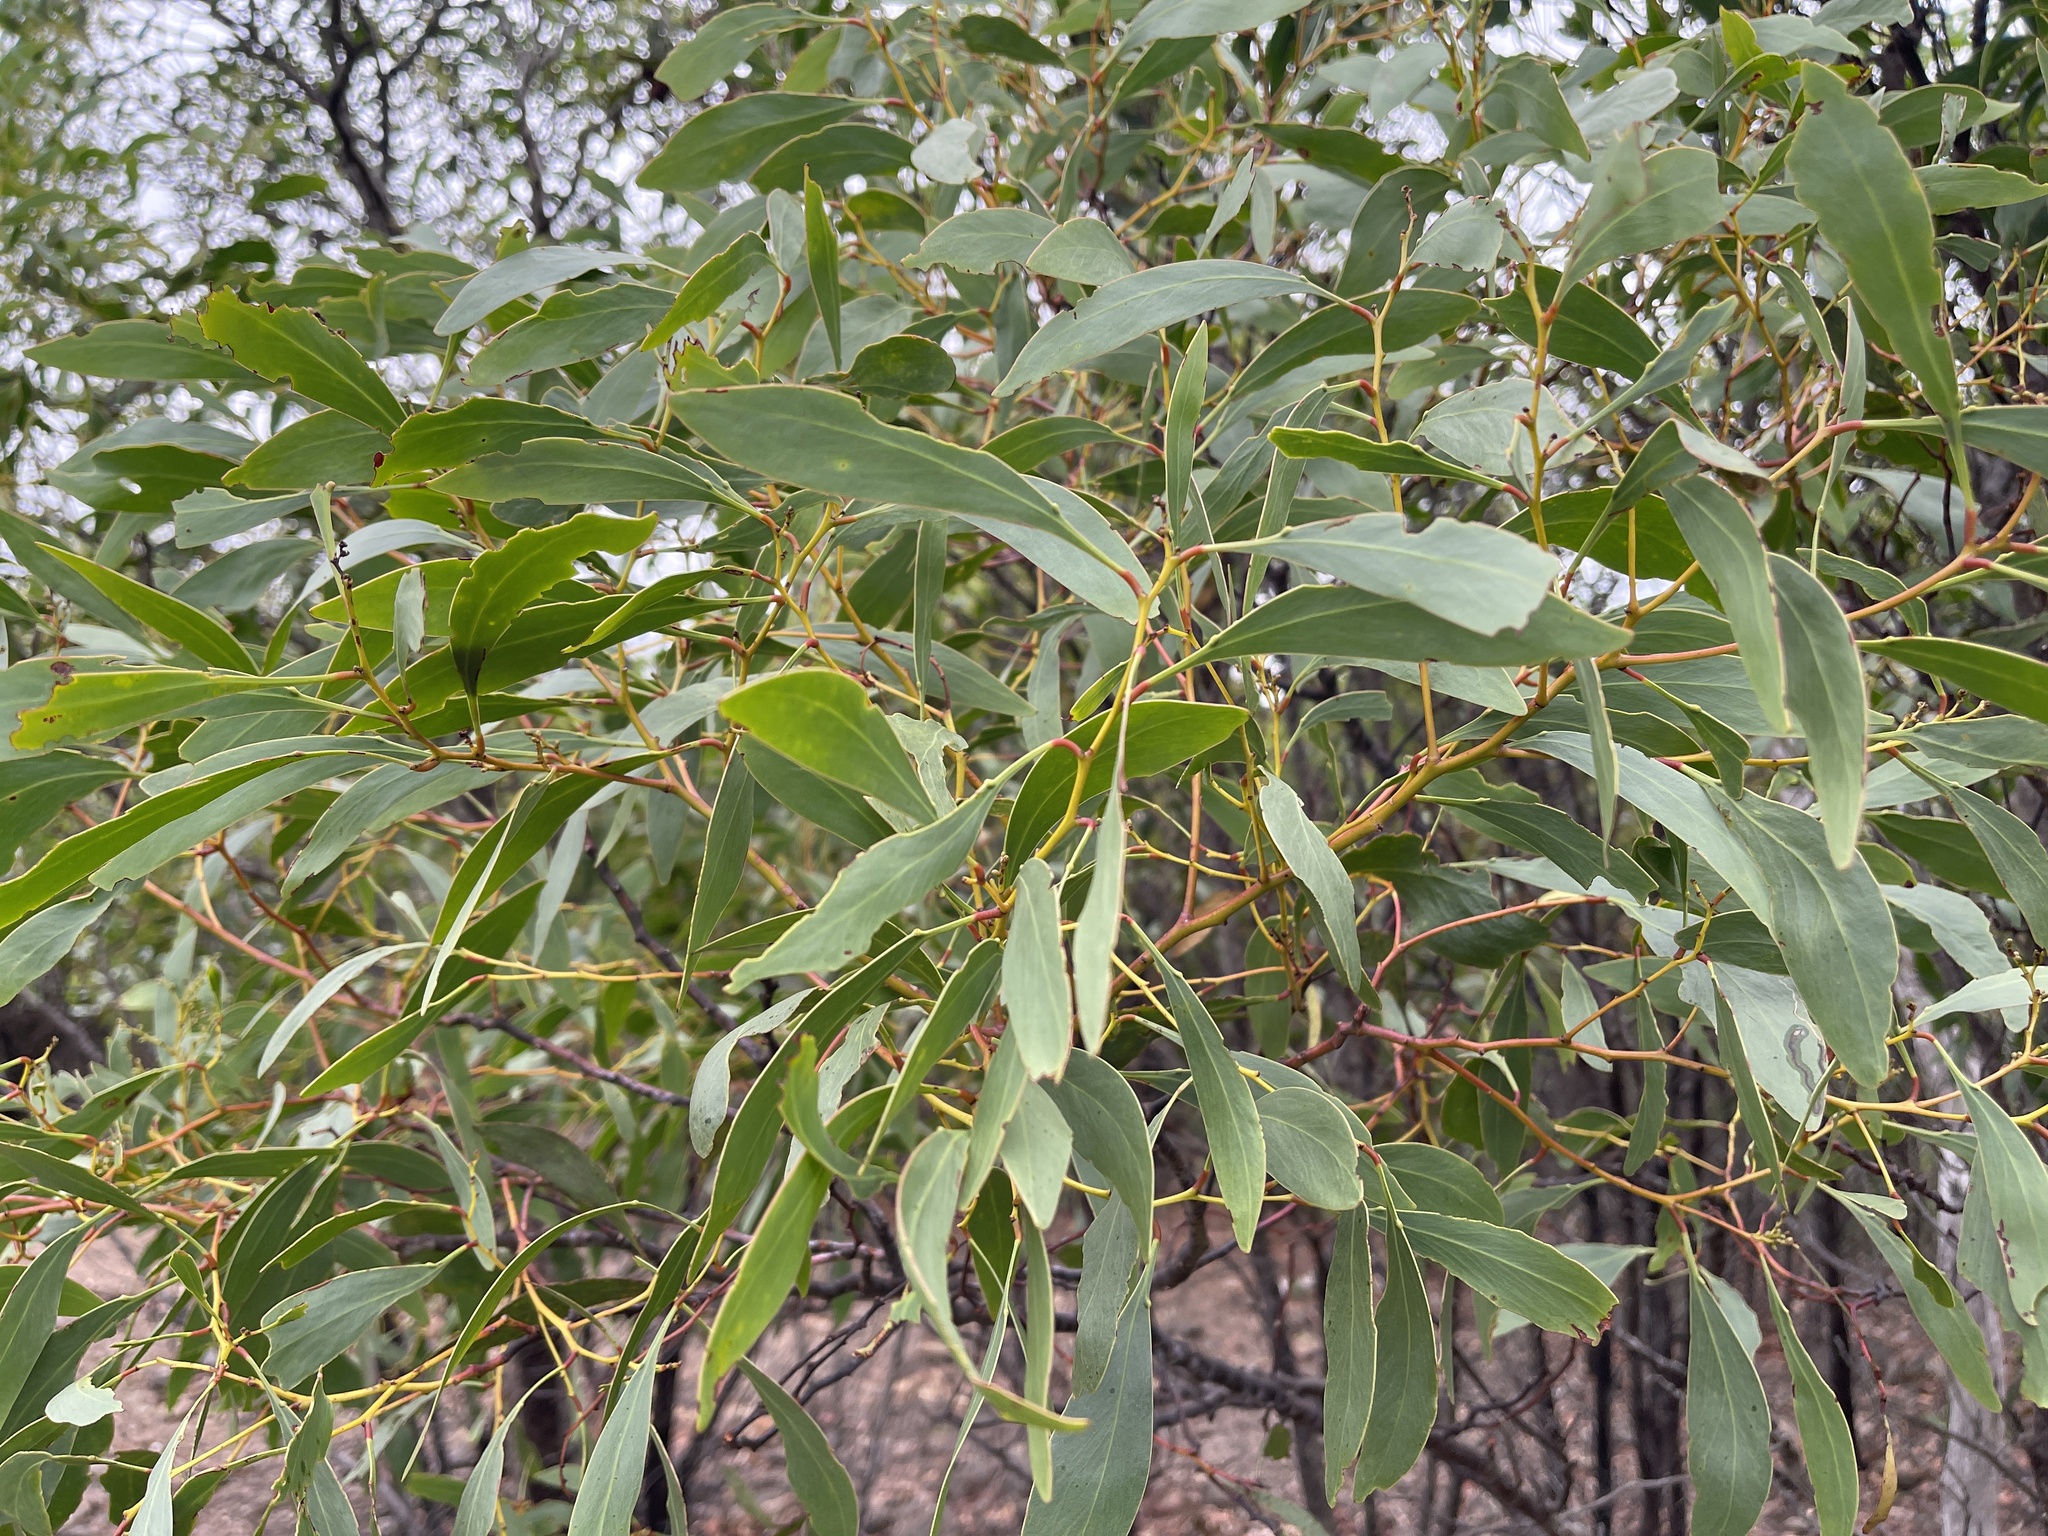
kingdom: Plantae
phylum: Tracheophyta
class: Magnoliopsida
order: Fabales
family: Fabaceae
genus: Acacia
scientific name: Acacia pycnantha
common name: Golden wattle
